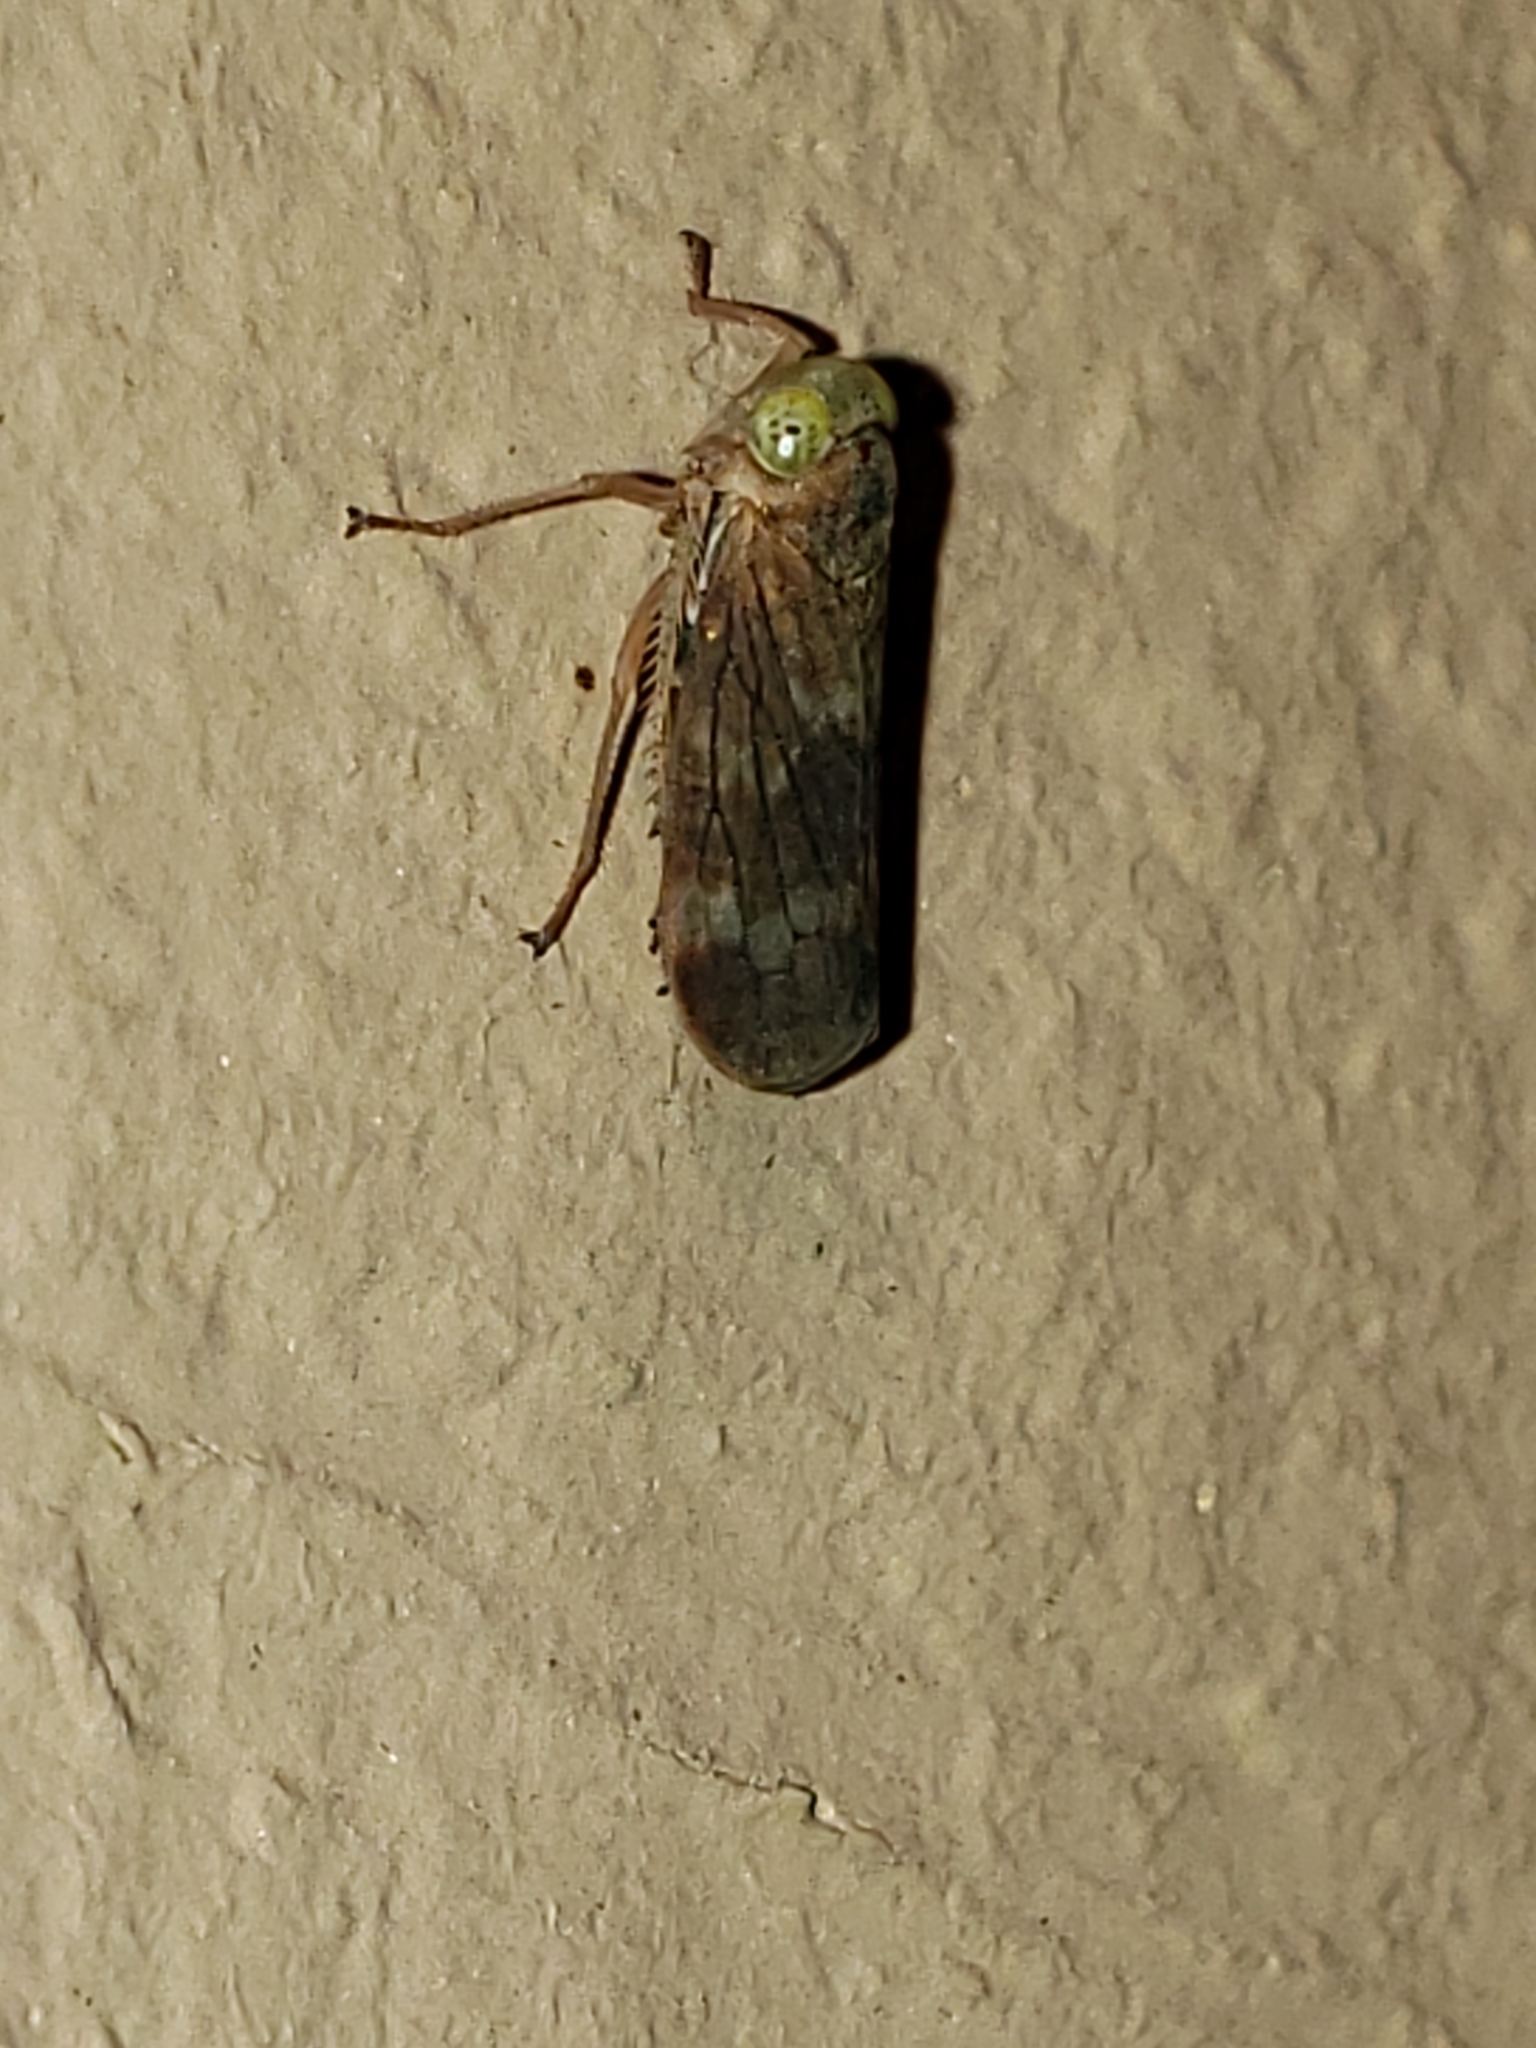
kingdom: Animalia
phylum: Arthropoda
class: Insecta
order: Hemiptera
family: Cicadellidae
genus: Jikradia
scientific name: Jikradia olitoria
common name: Coppery leafhopper
